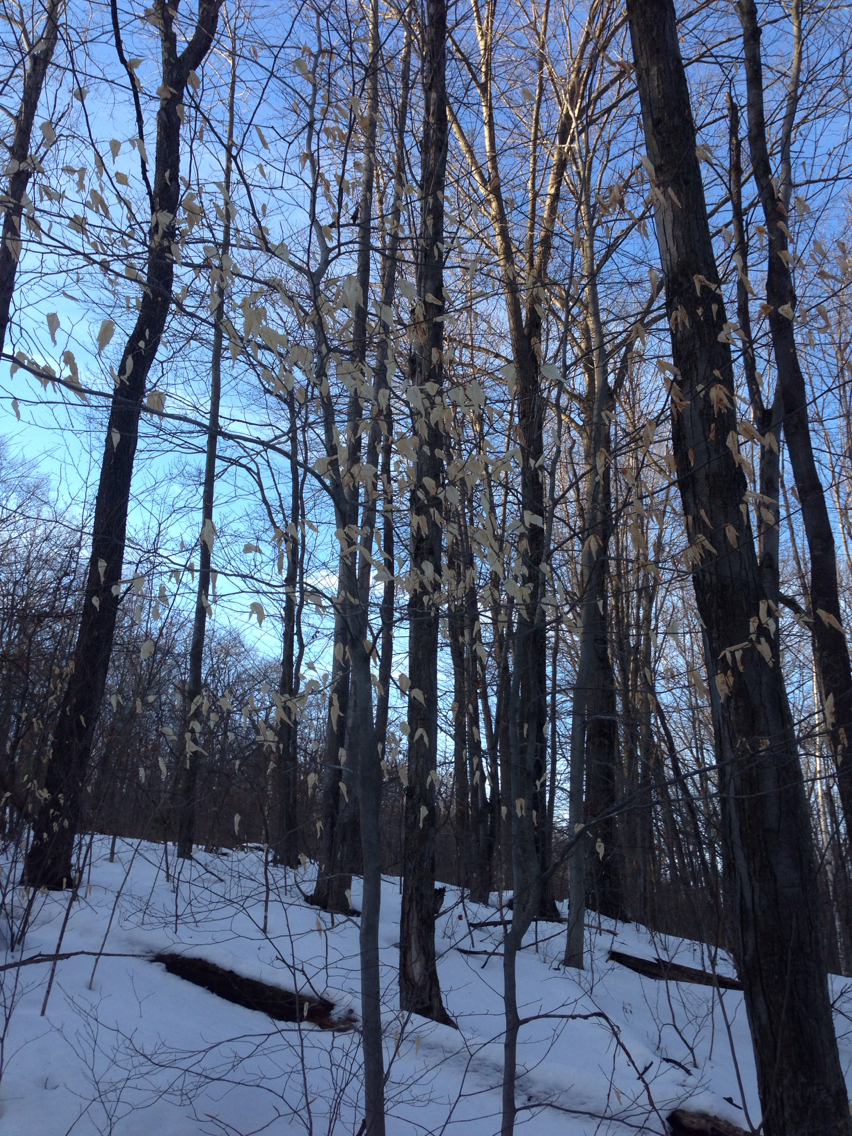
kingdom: Plantae
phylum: Tracheophyta
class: Magnoliopsida
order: Fagales
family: Fagaceae
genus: Fagus
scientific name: Fagus grandifolia
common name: American beech
